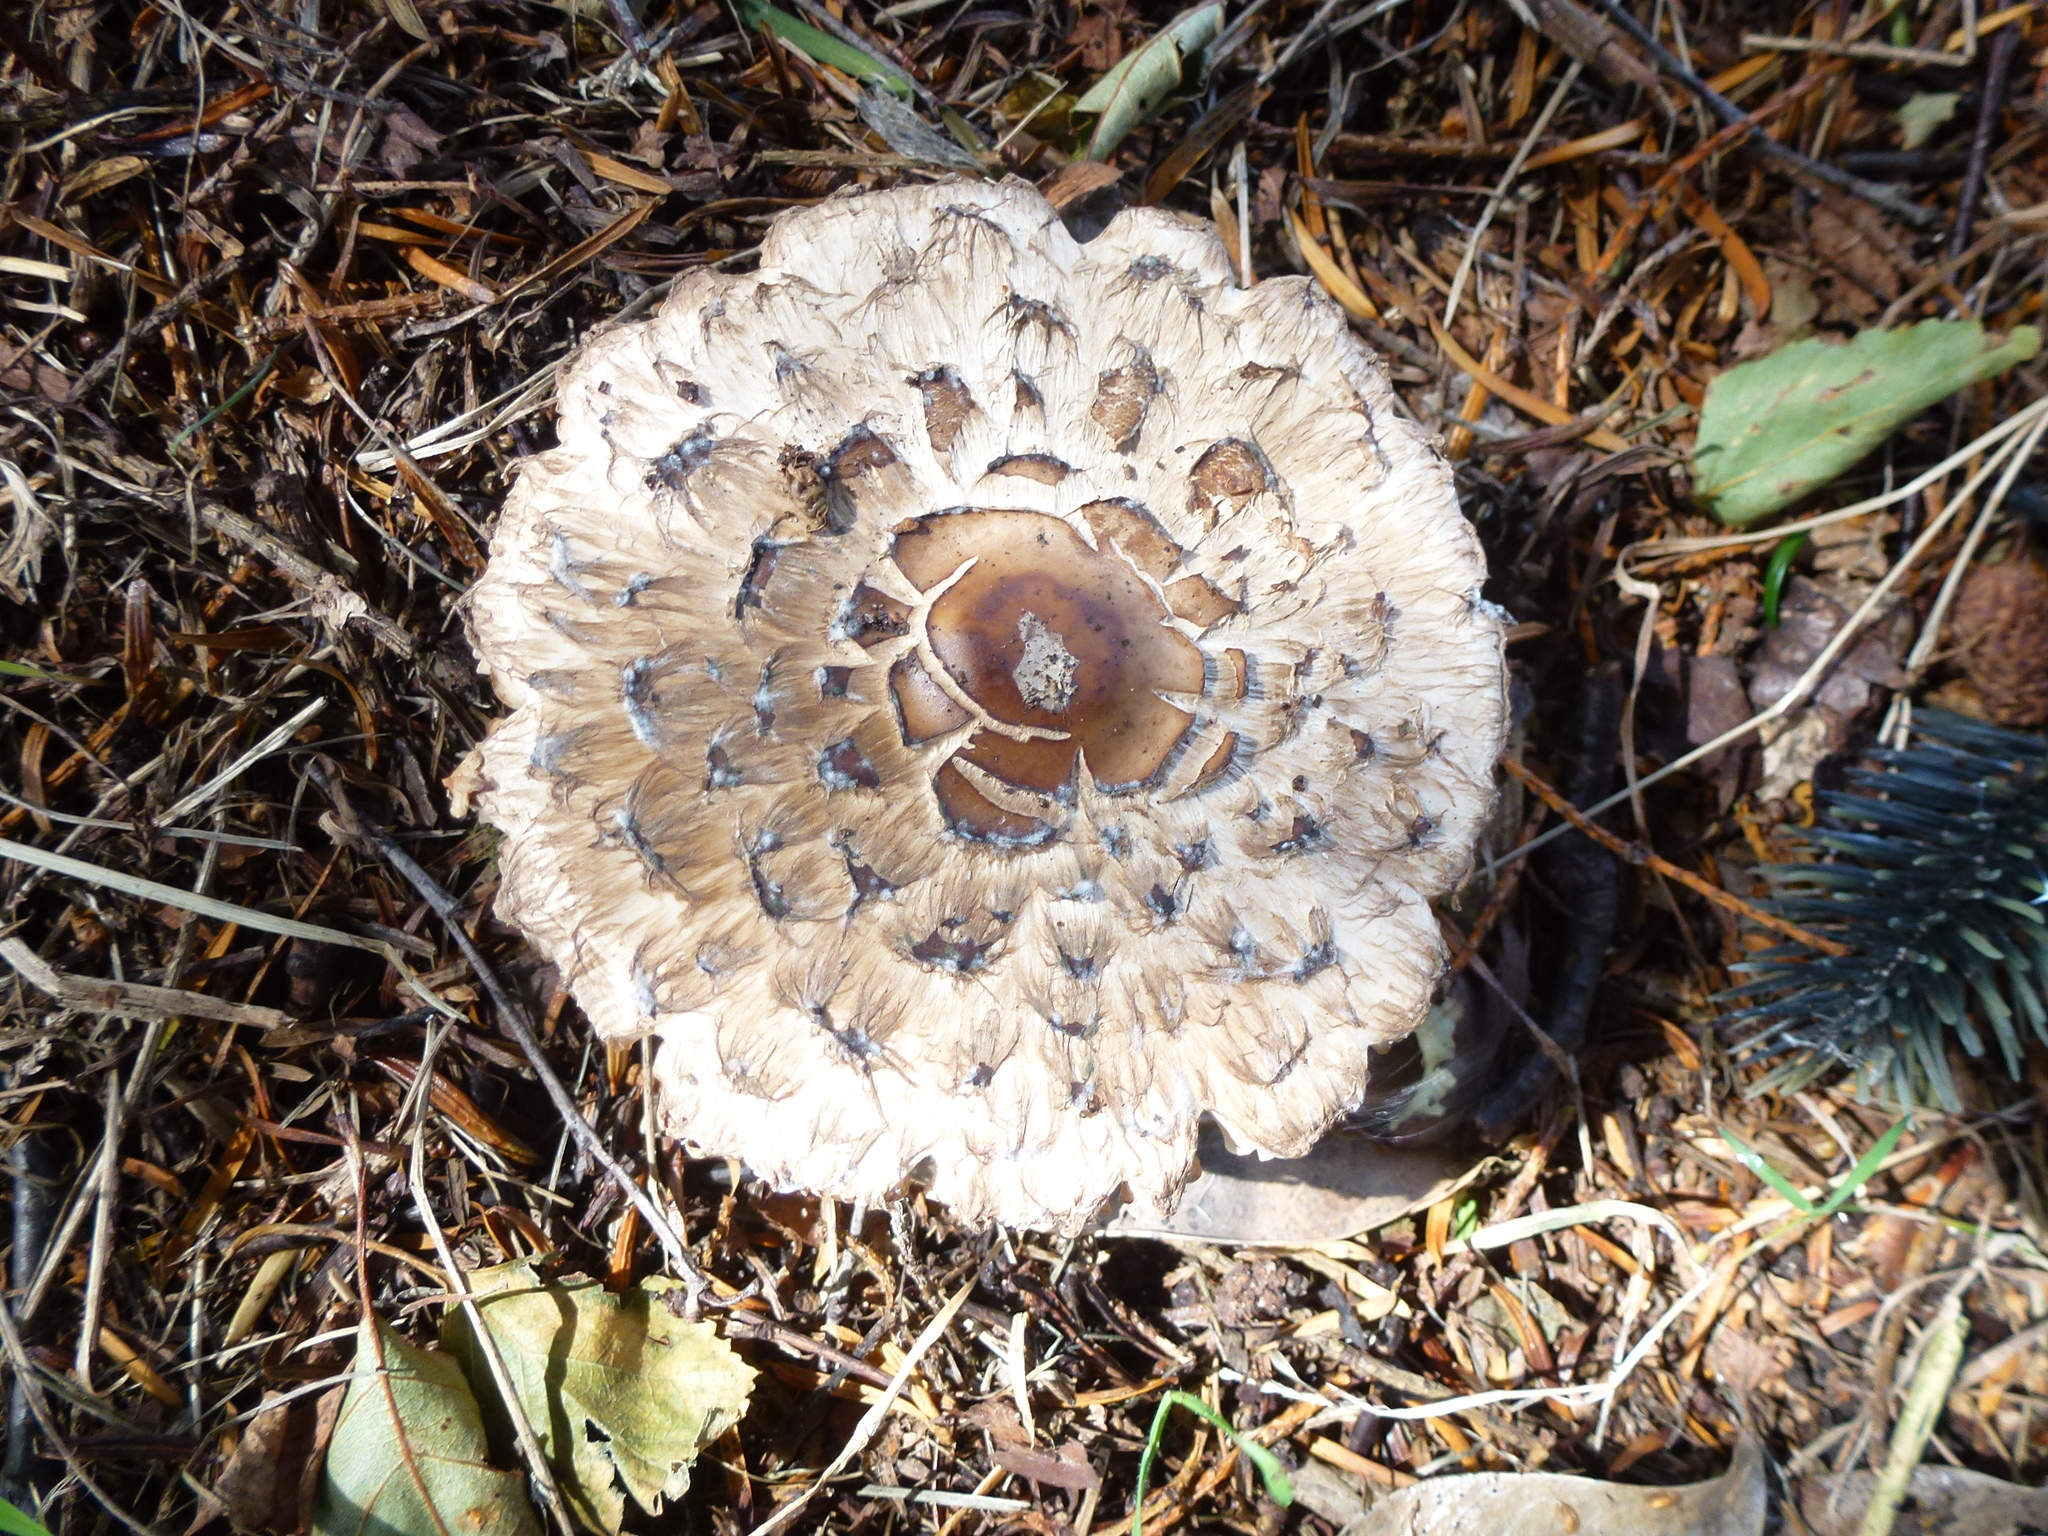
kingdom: Fungi
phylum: Basidiomycota
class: Agaricomycetes
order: Agaricales
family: Agaricaceae
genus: Chlorophyllum
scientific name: Chlorophyllum rhacodes
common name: Shaggy parasol
